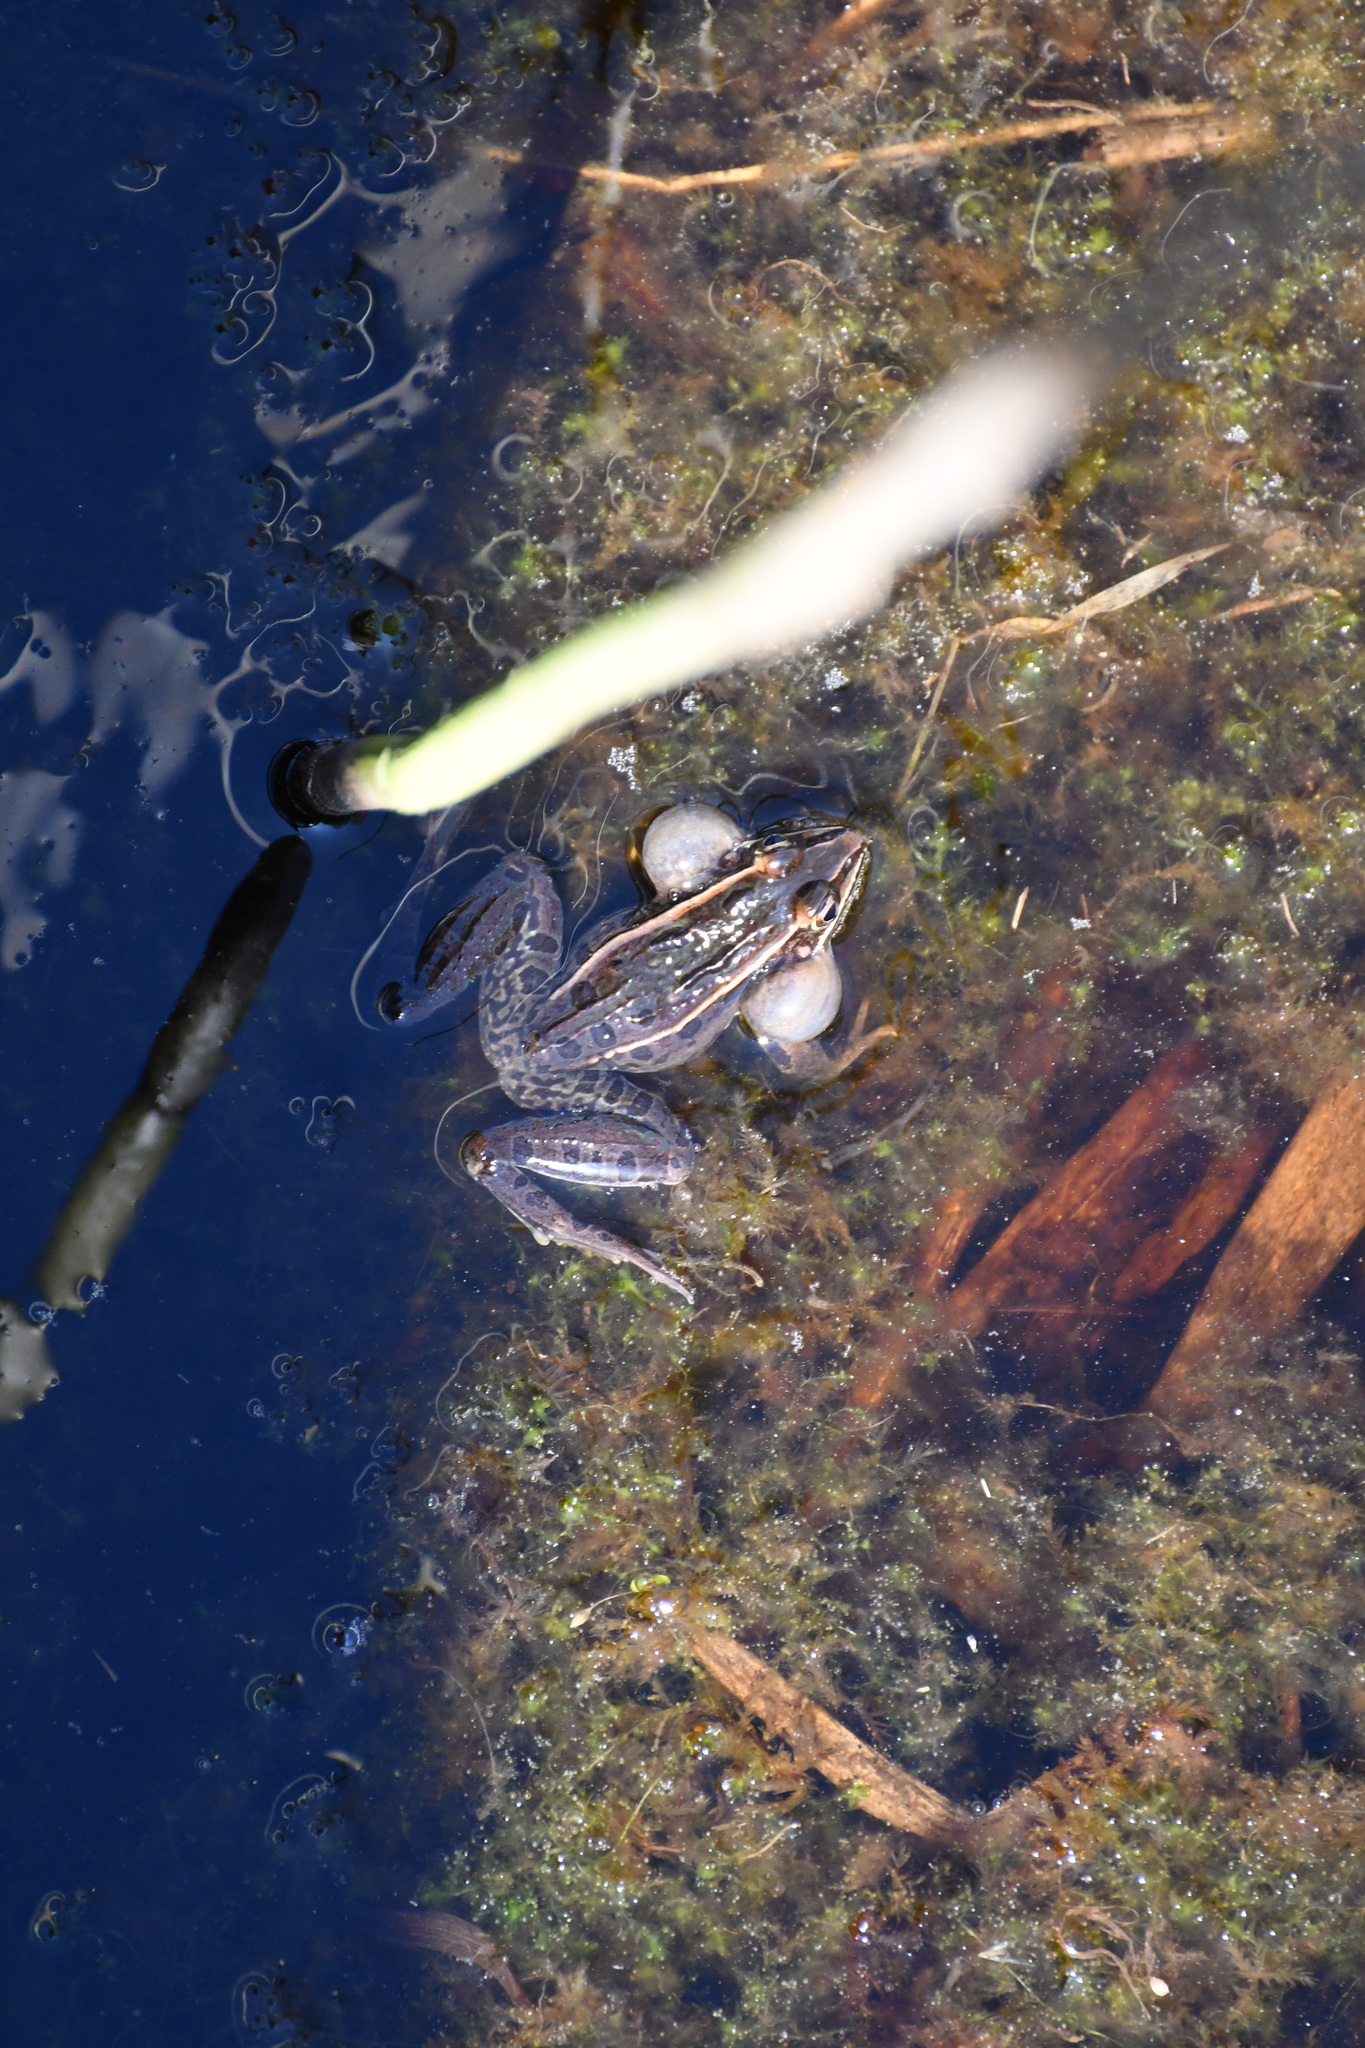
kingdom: Animalia
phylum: Chordata
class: Amphibia
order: Anura
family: Ranidae
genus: Lithobates
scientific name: Lithobates sphenocephalus
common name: Southern leopard frog
